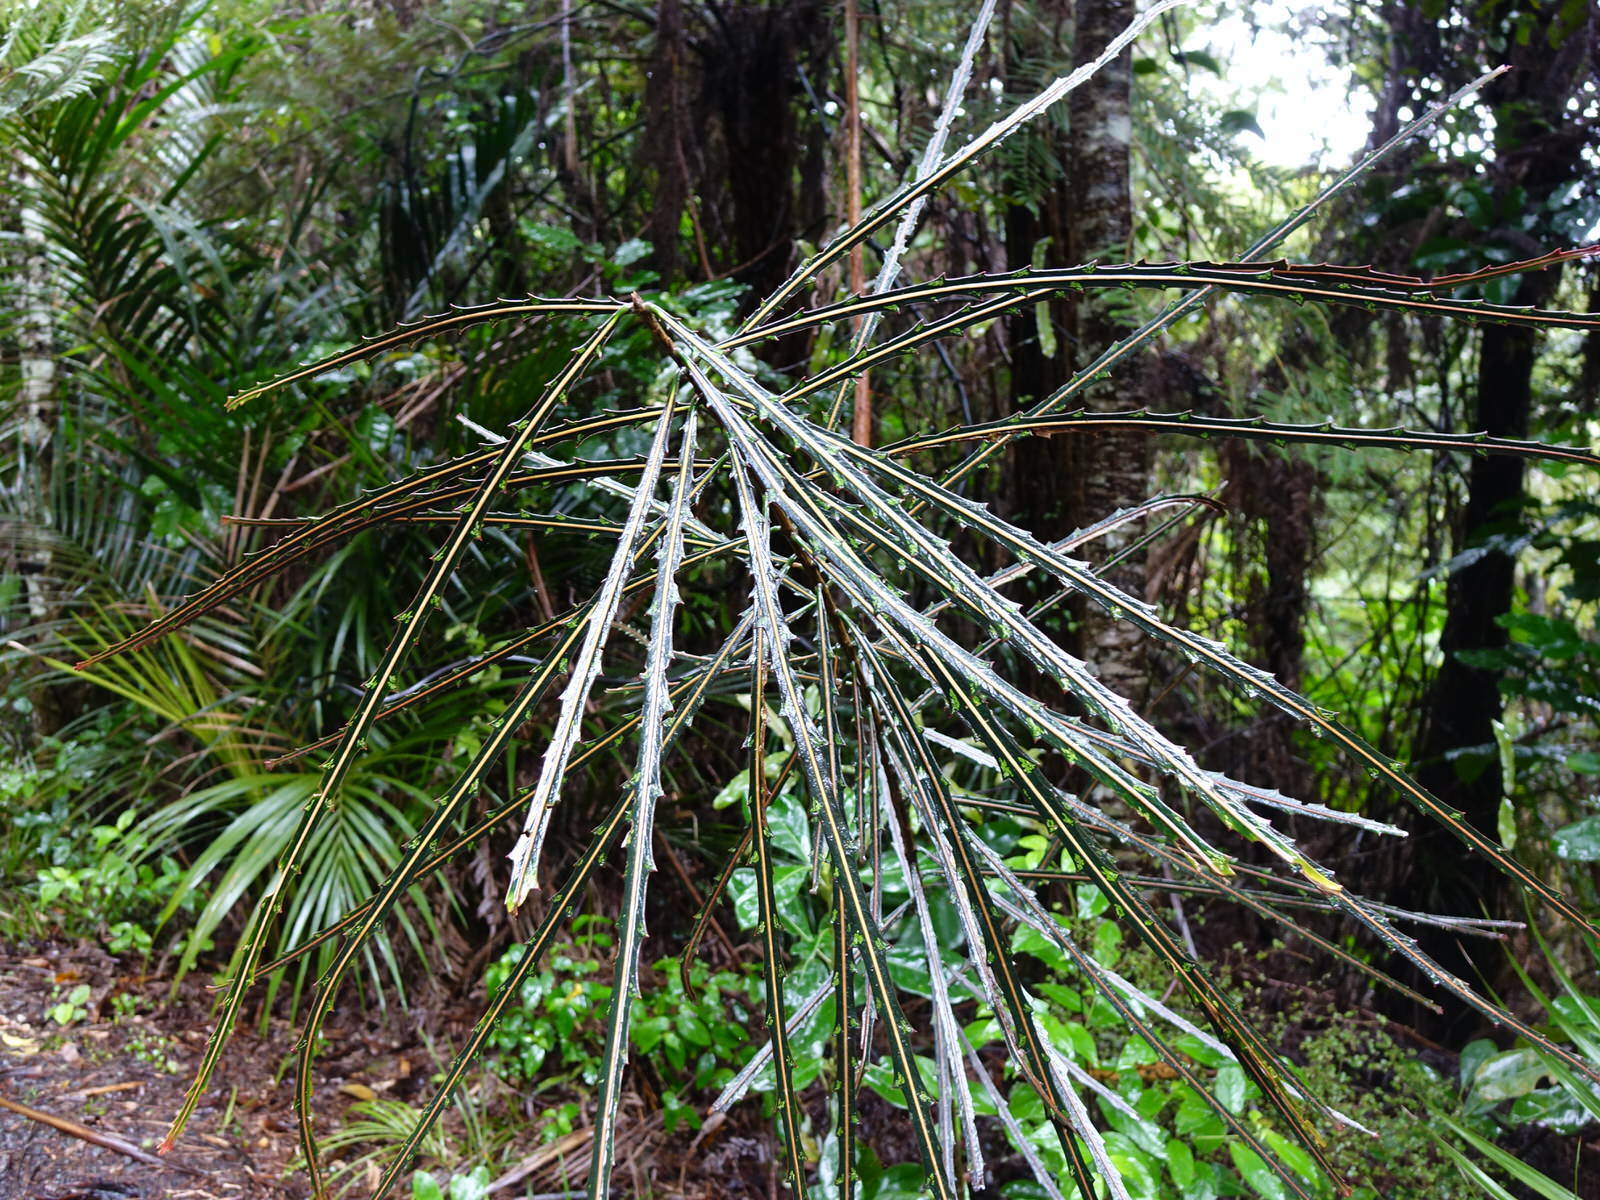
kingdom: Plantae
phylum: Tracheophyta
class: Magnoliopsida
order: Apiales
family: Araliaceae
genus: Pseudopanax
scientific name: Pseudopanax crassifolius
